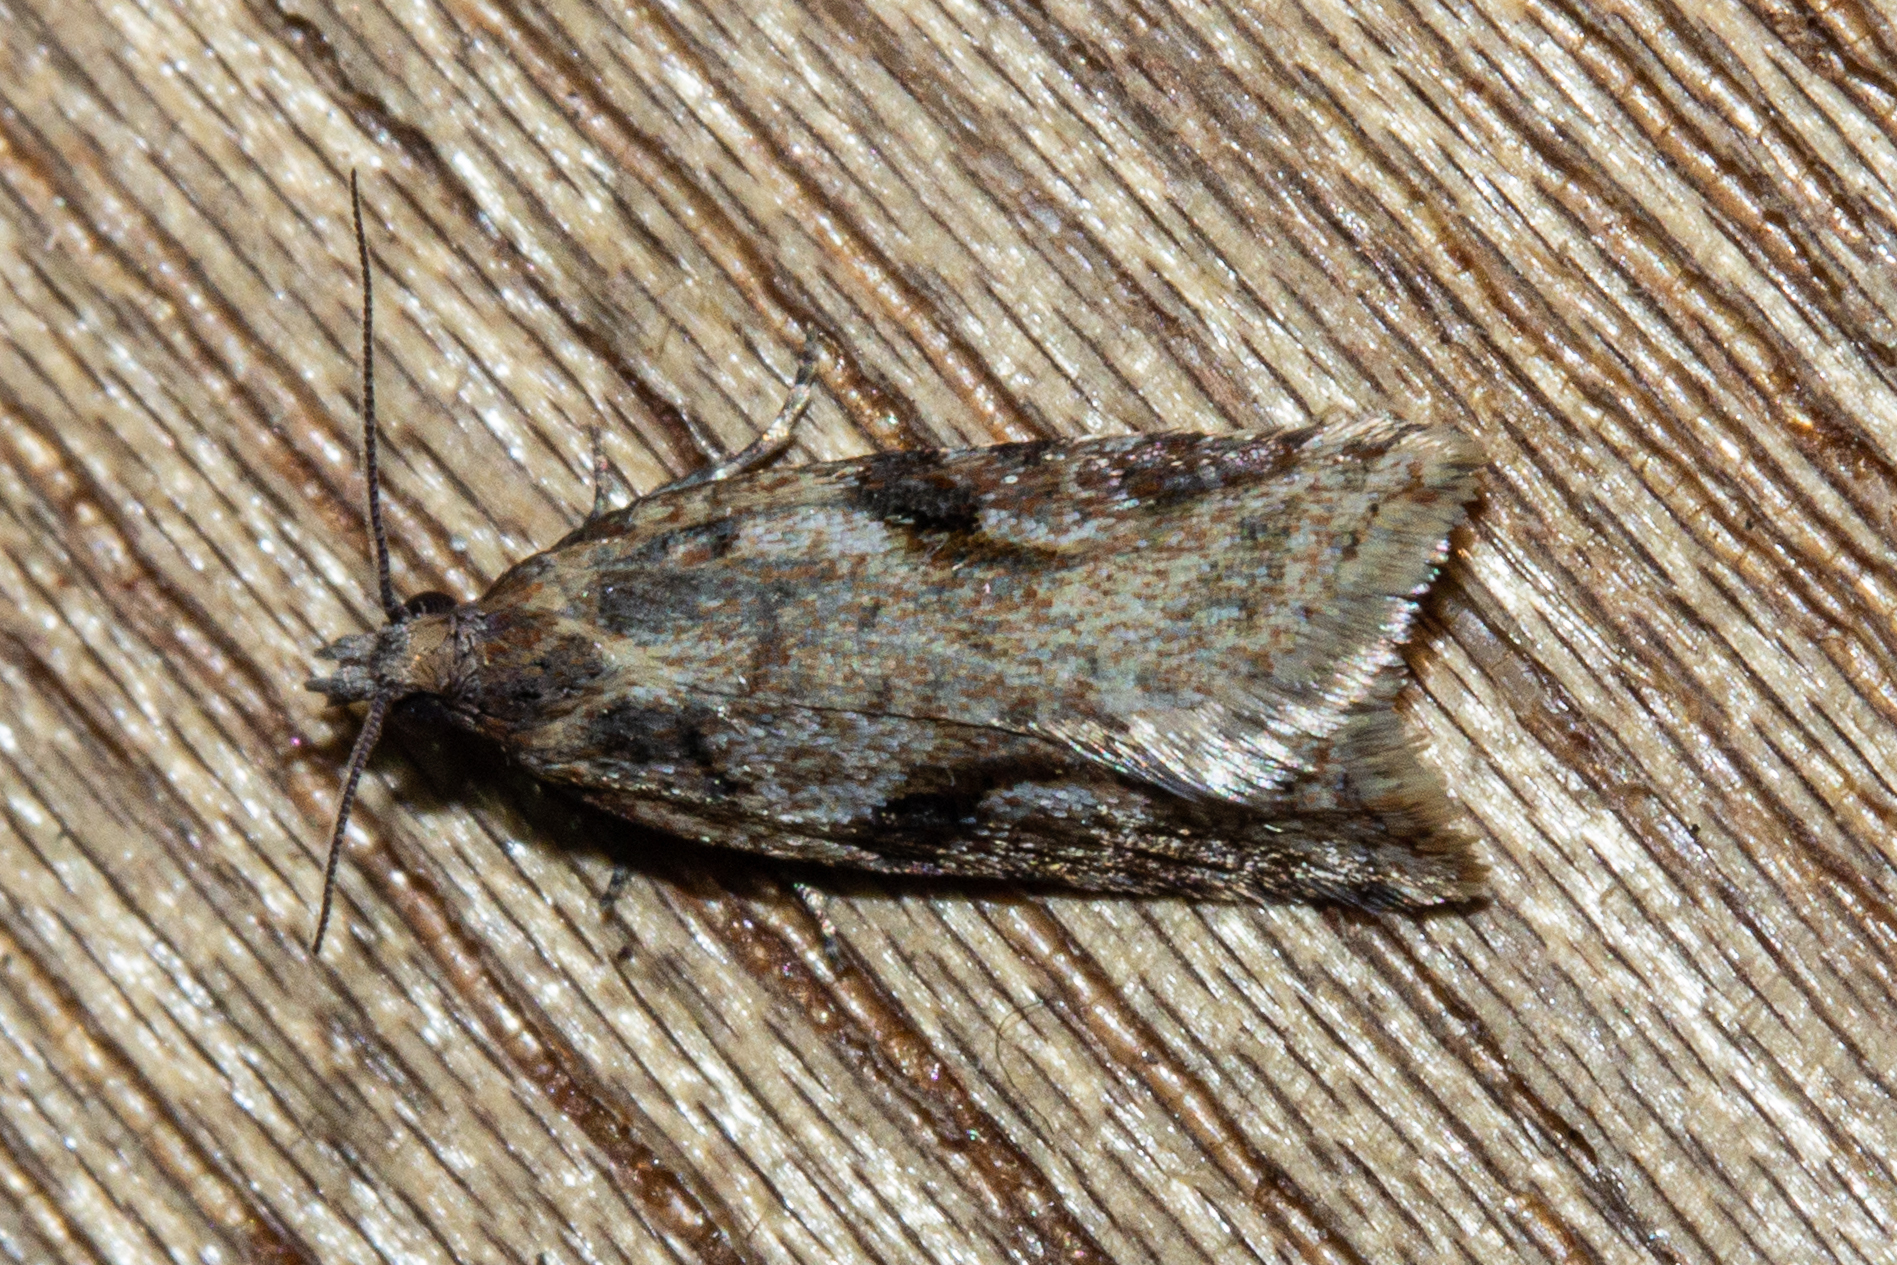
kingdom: Animalia
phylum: Arthropoda
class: Insecta
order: Lepidoptera
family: Tortricidae
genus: Capua
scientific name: Capua semiferana
